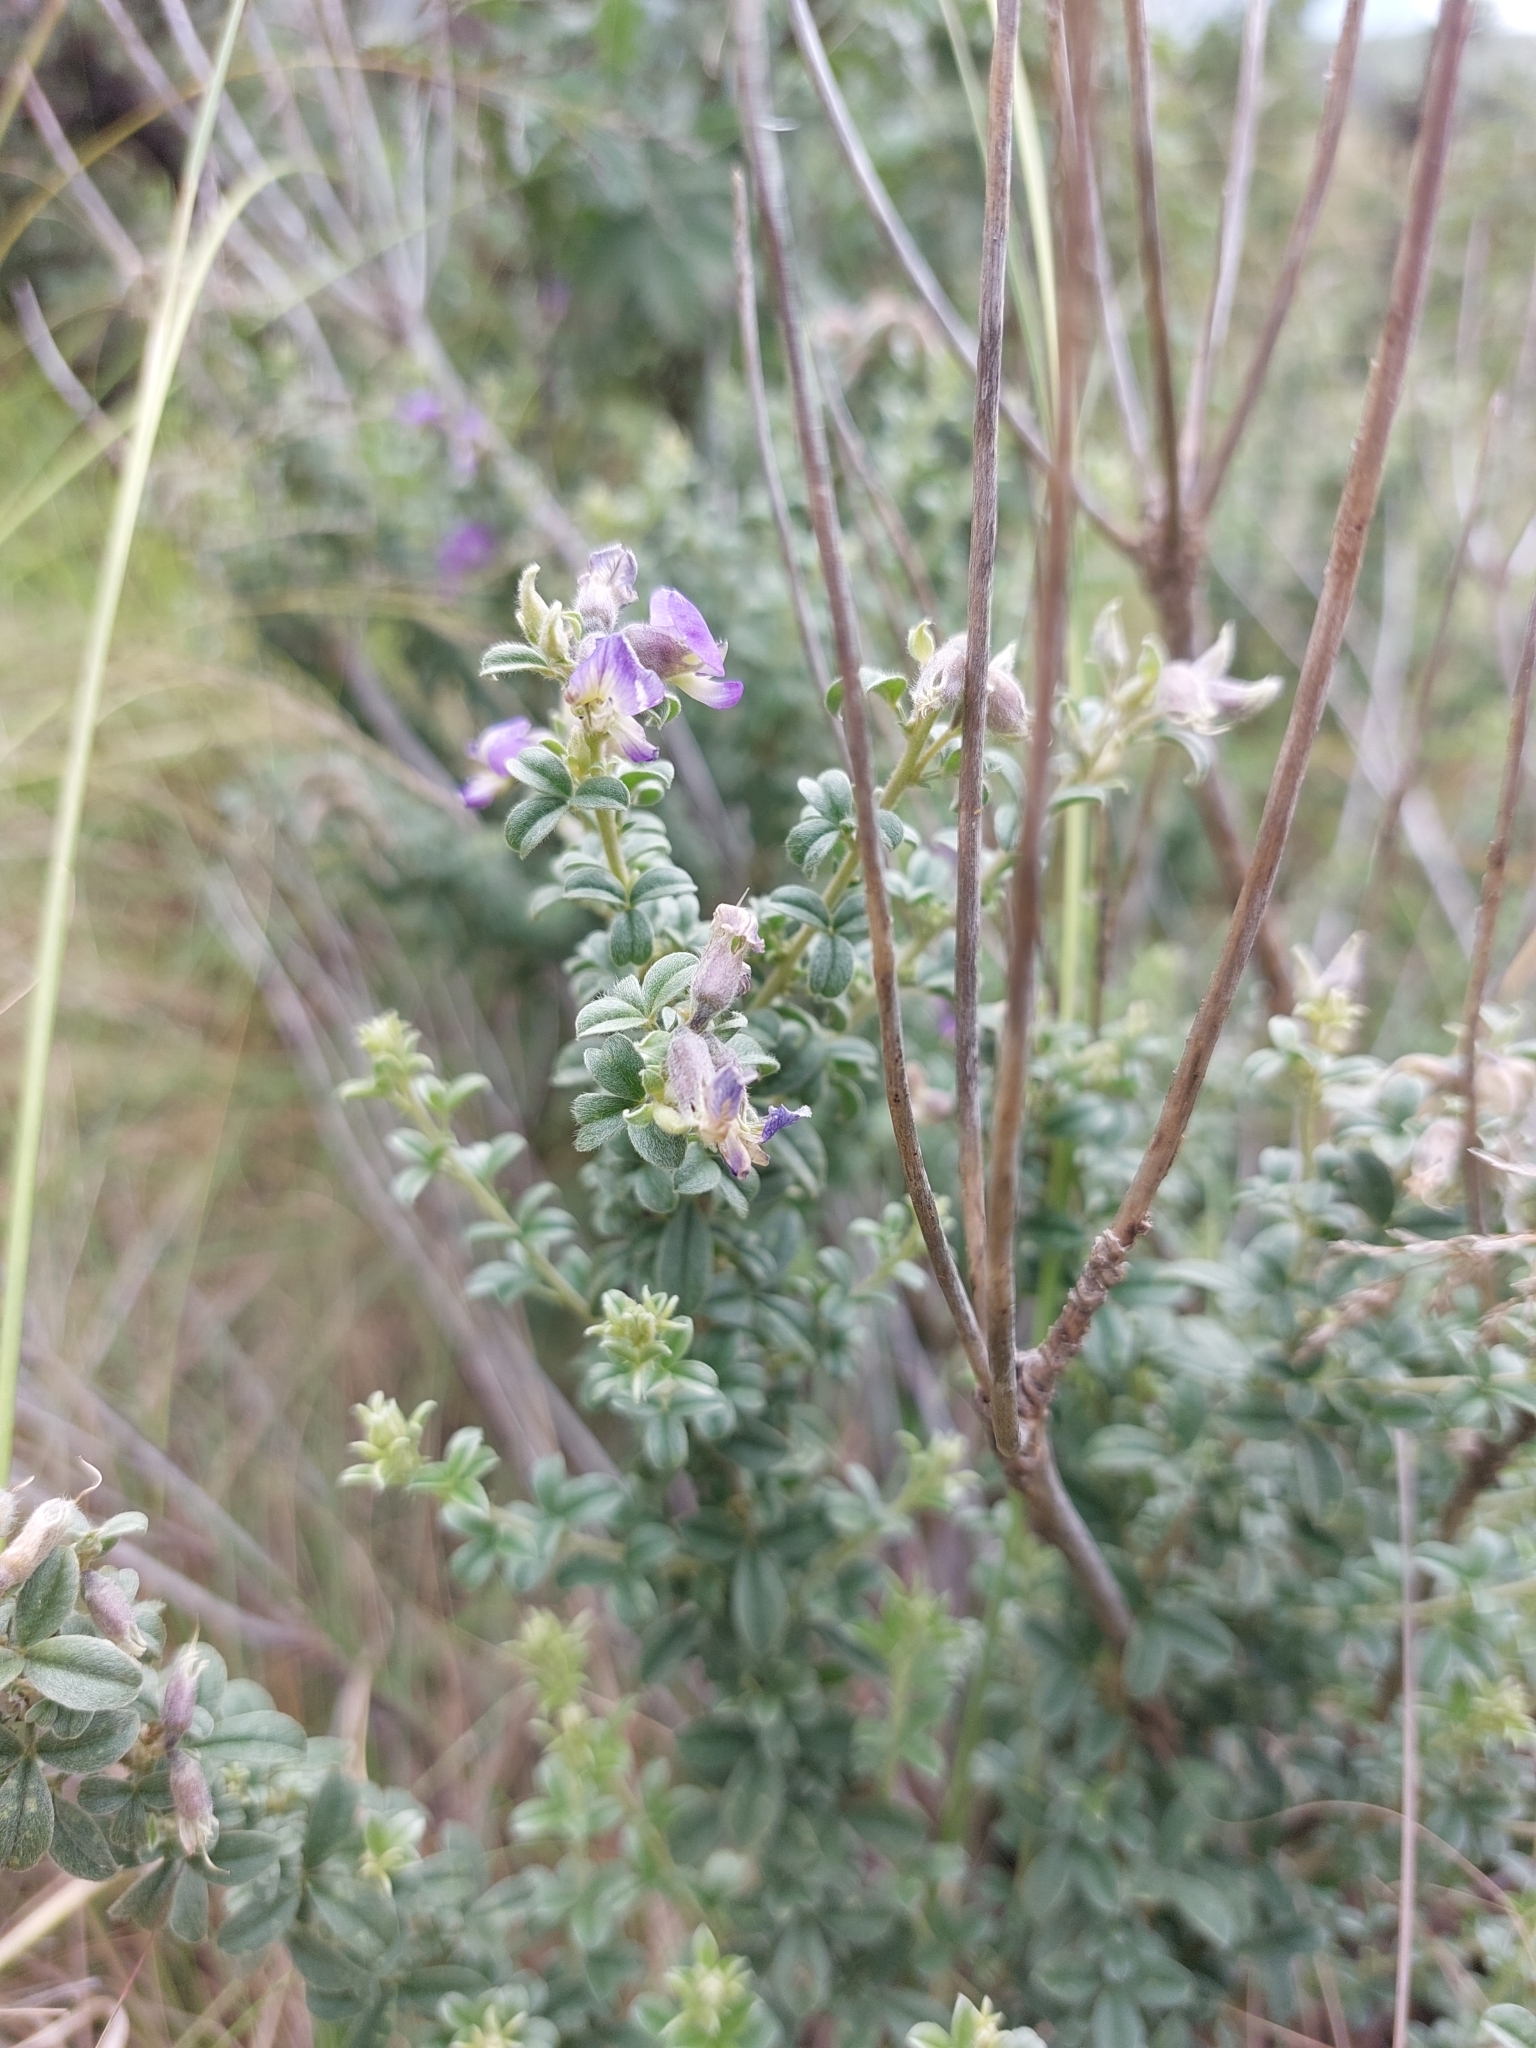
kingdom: Plantae
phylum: Tracheophyta
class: Magnoliopsida
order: Fabales
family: Fabaceae
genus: Lotononis
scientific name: Lotononis lotononoides
